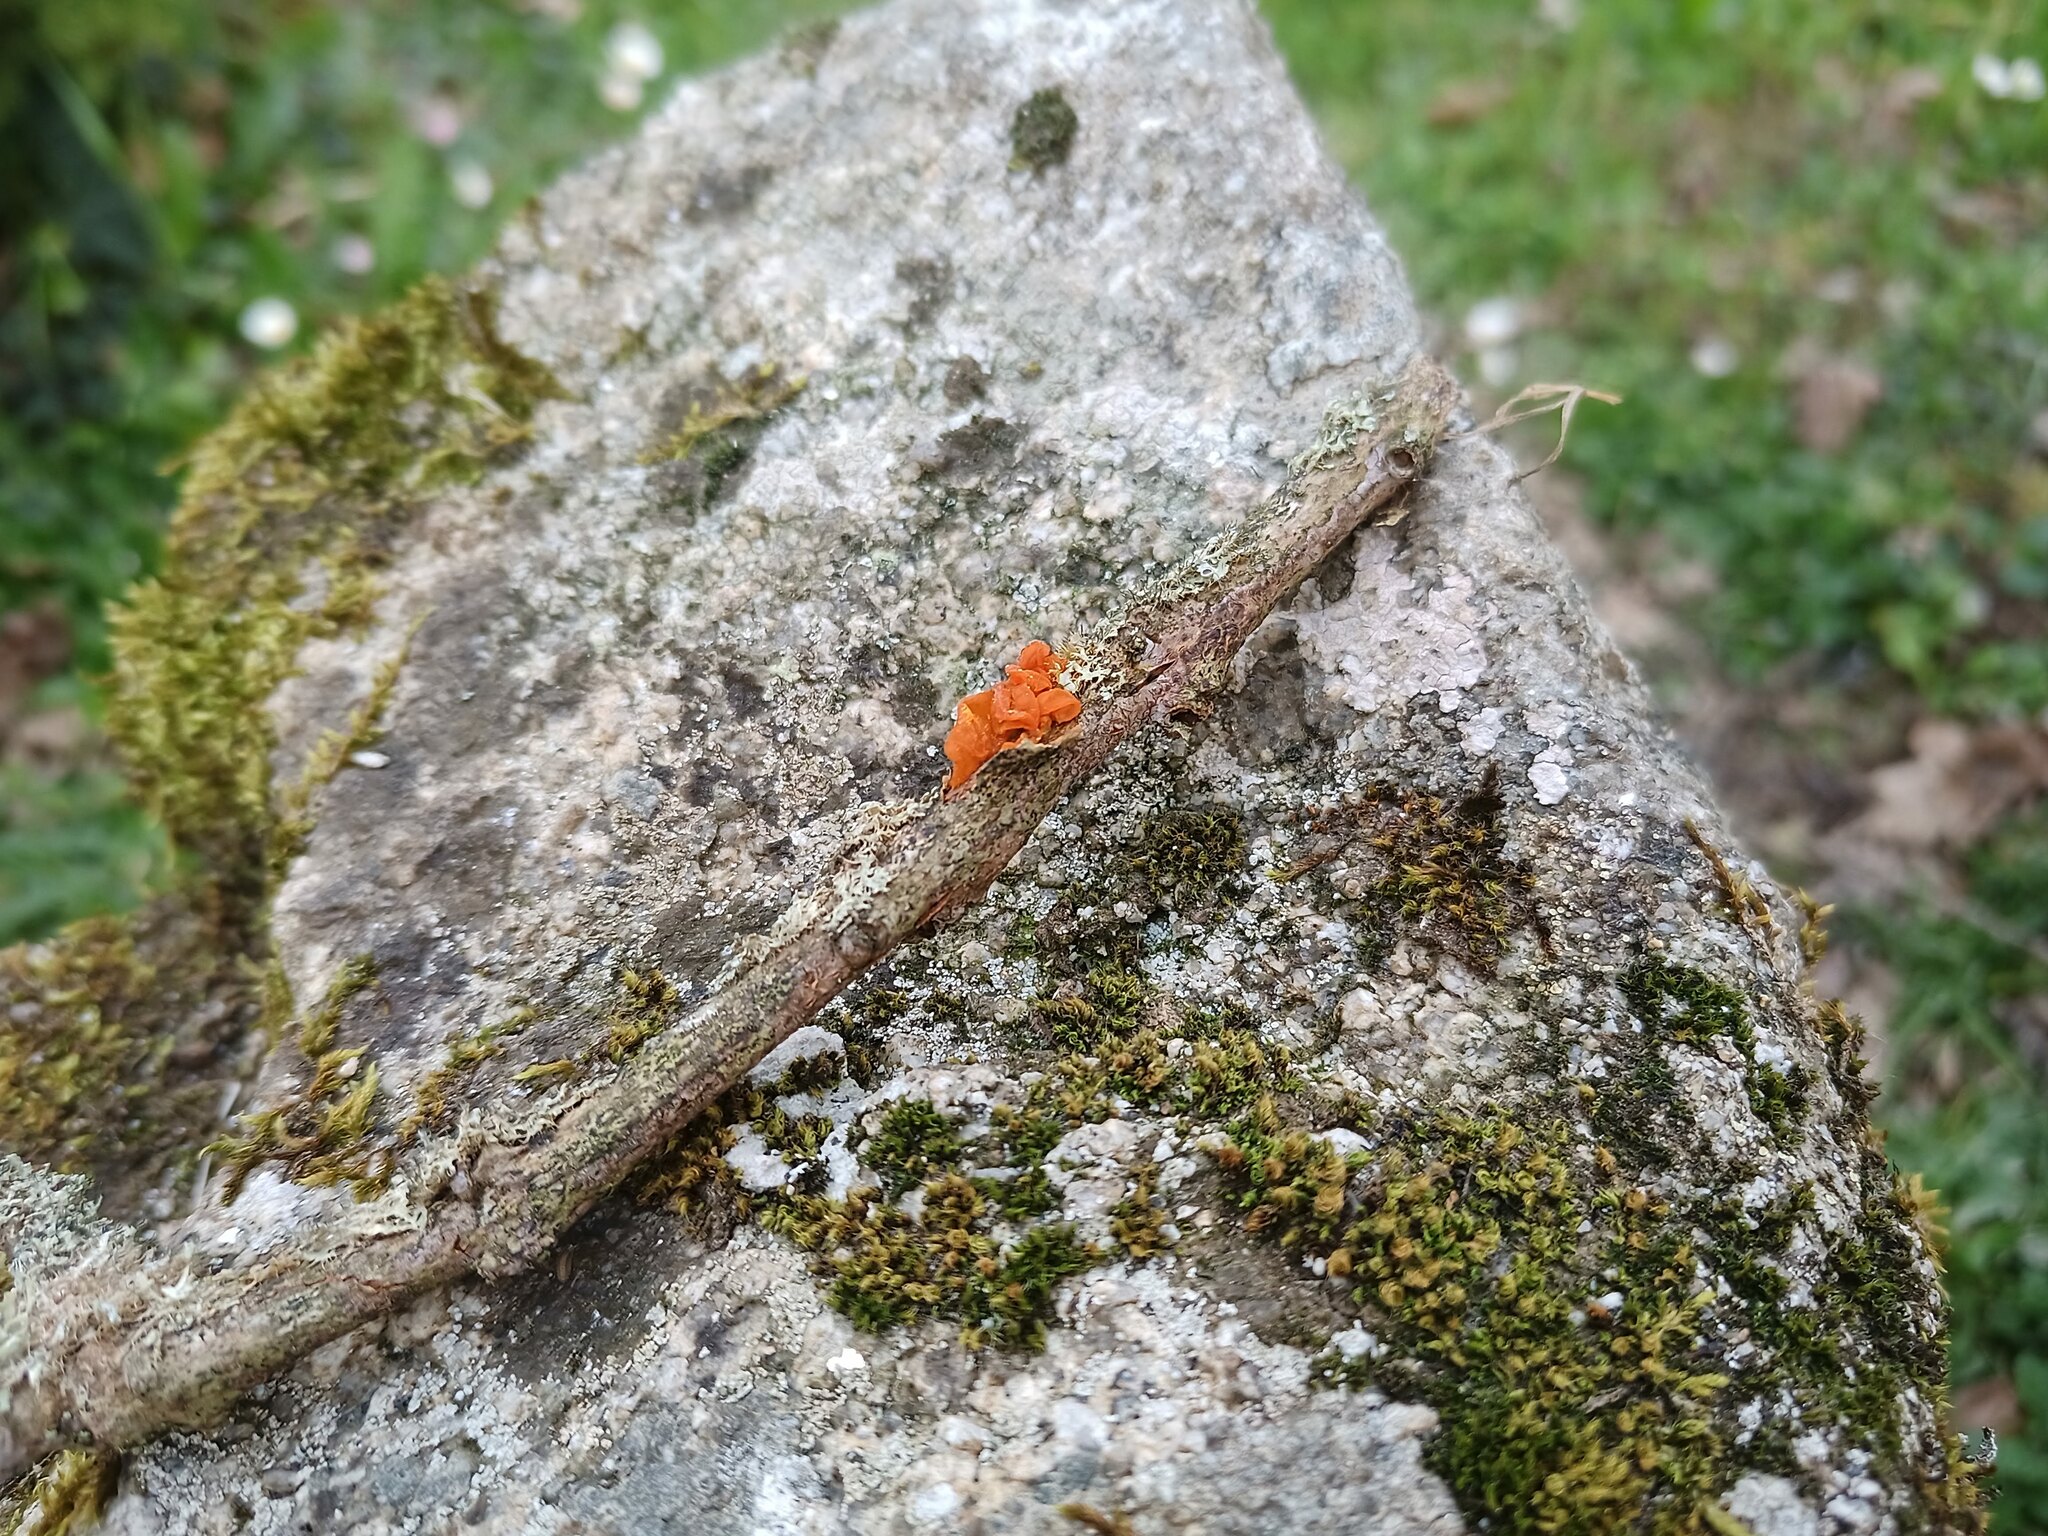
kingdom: Fungi
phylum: Basidiomycota
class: Tremellomycetes
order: Tremellales
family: Tremellaceae
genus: Tremella
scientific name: Tremella mesenterica
